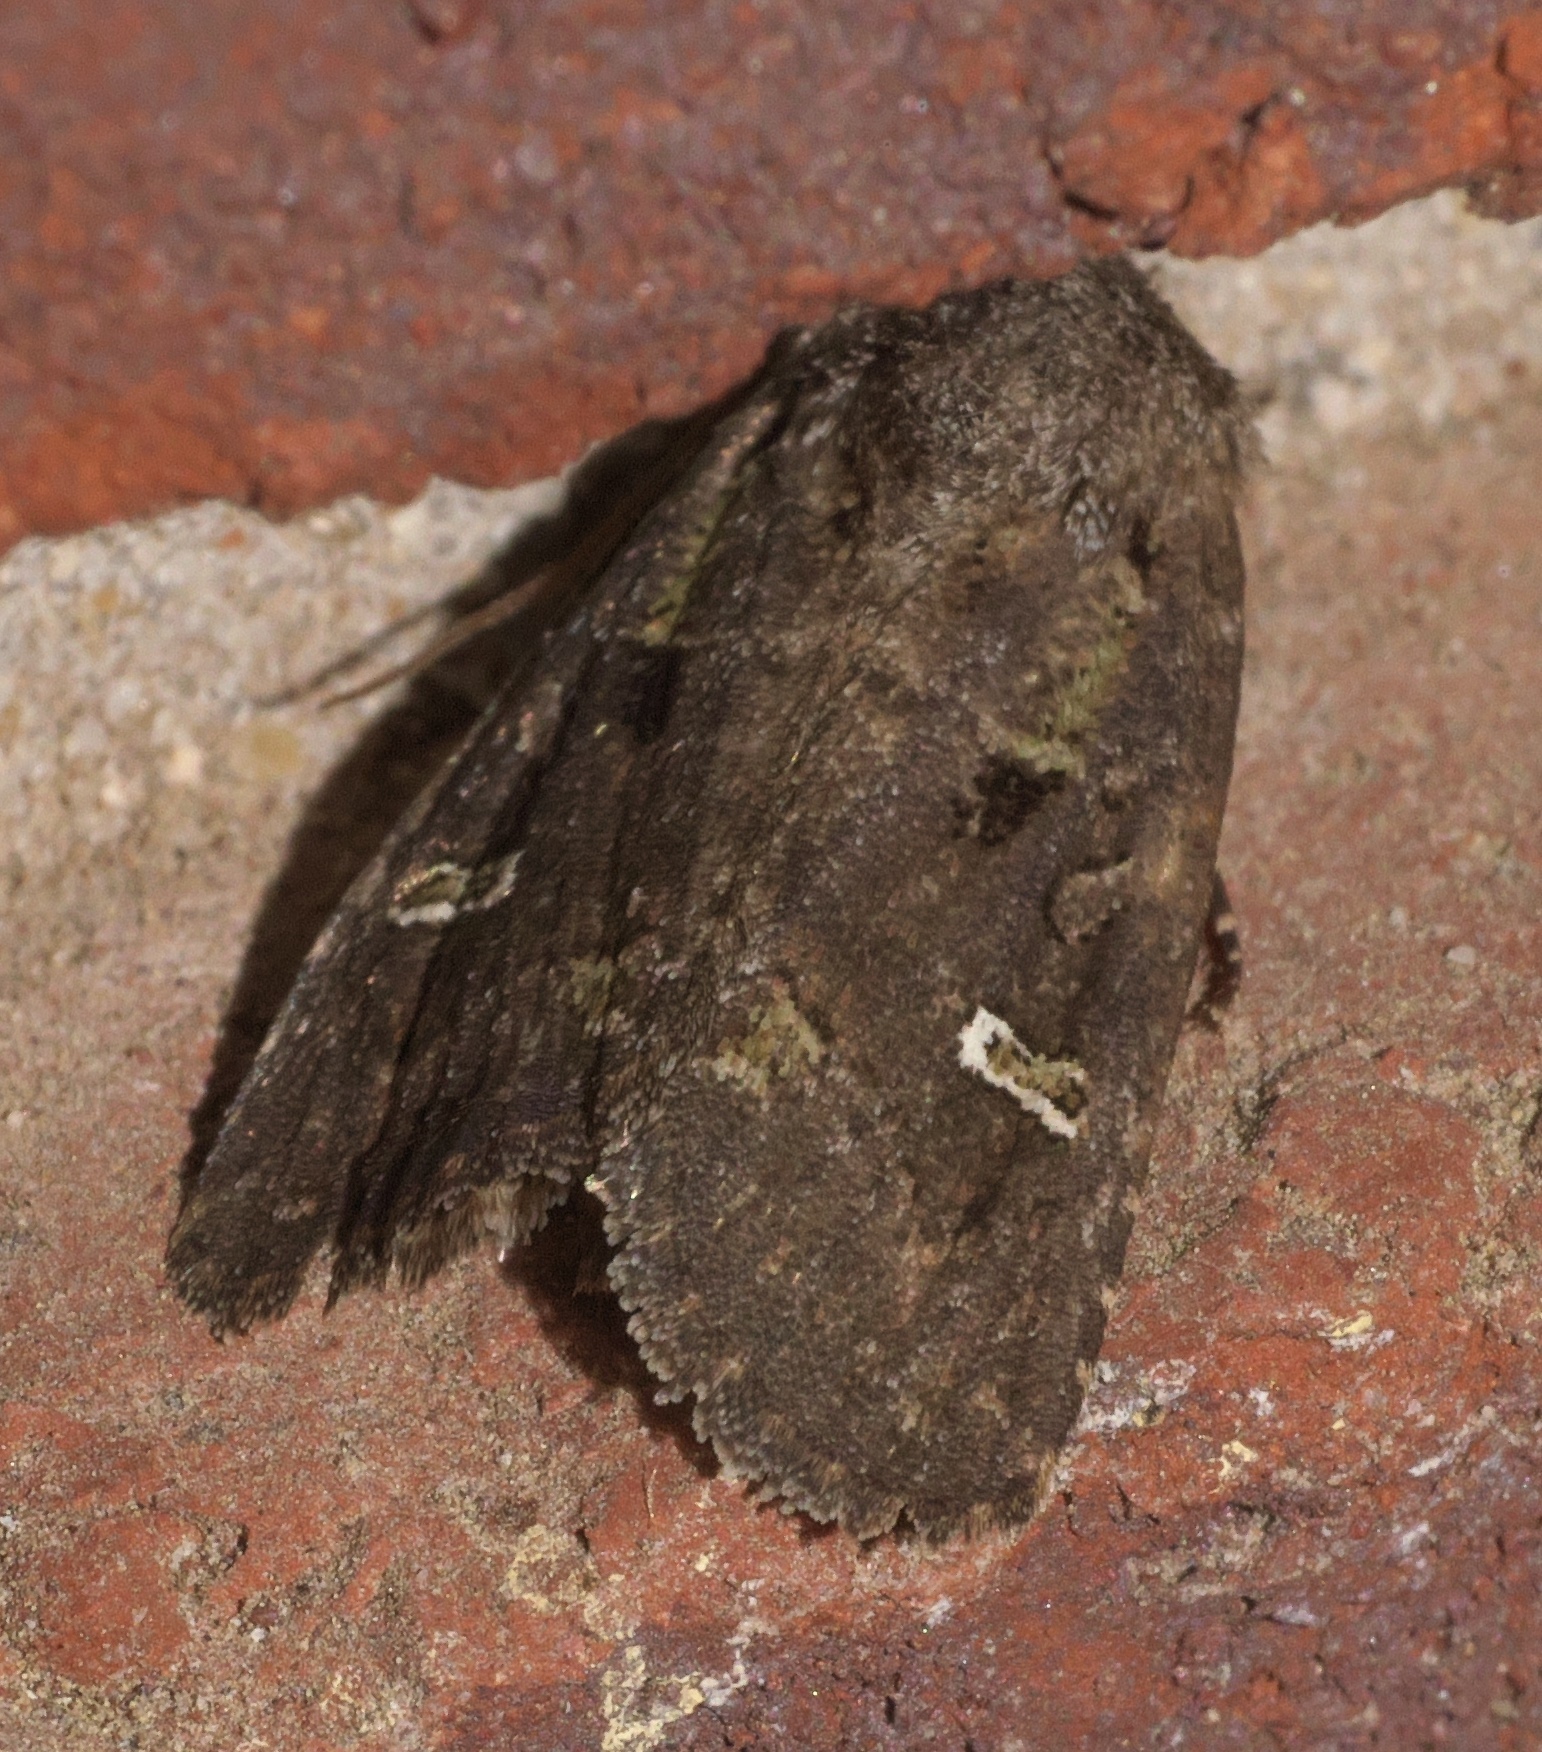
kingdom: Animalia
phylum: Arthropoda
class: Insecta
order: Lepidoptera
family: Noctuidae
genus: Lacinipolia
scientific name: Lacinipolia renigera
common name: Kidney-spotted minor
